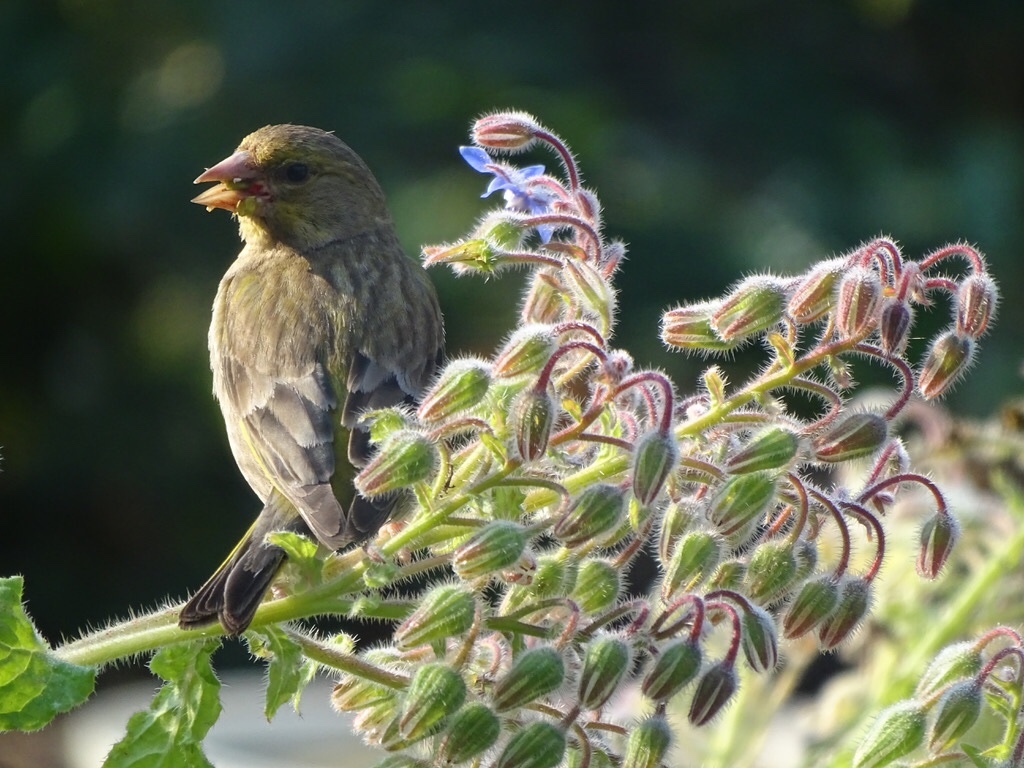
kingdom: Plantae
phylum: Tracheophyta
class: Liliopsida
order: Poales
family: Poaceae
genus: Chloris
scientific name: Chloris chloris
